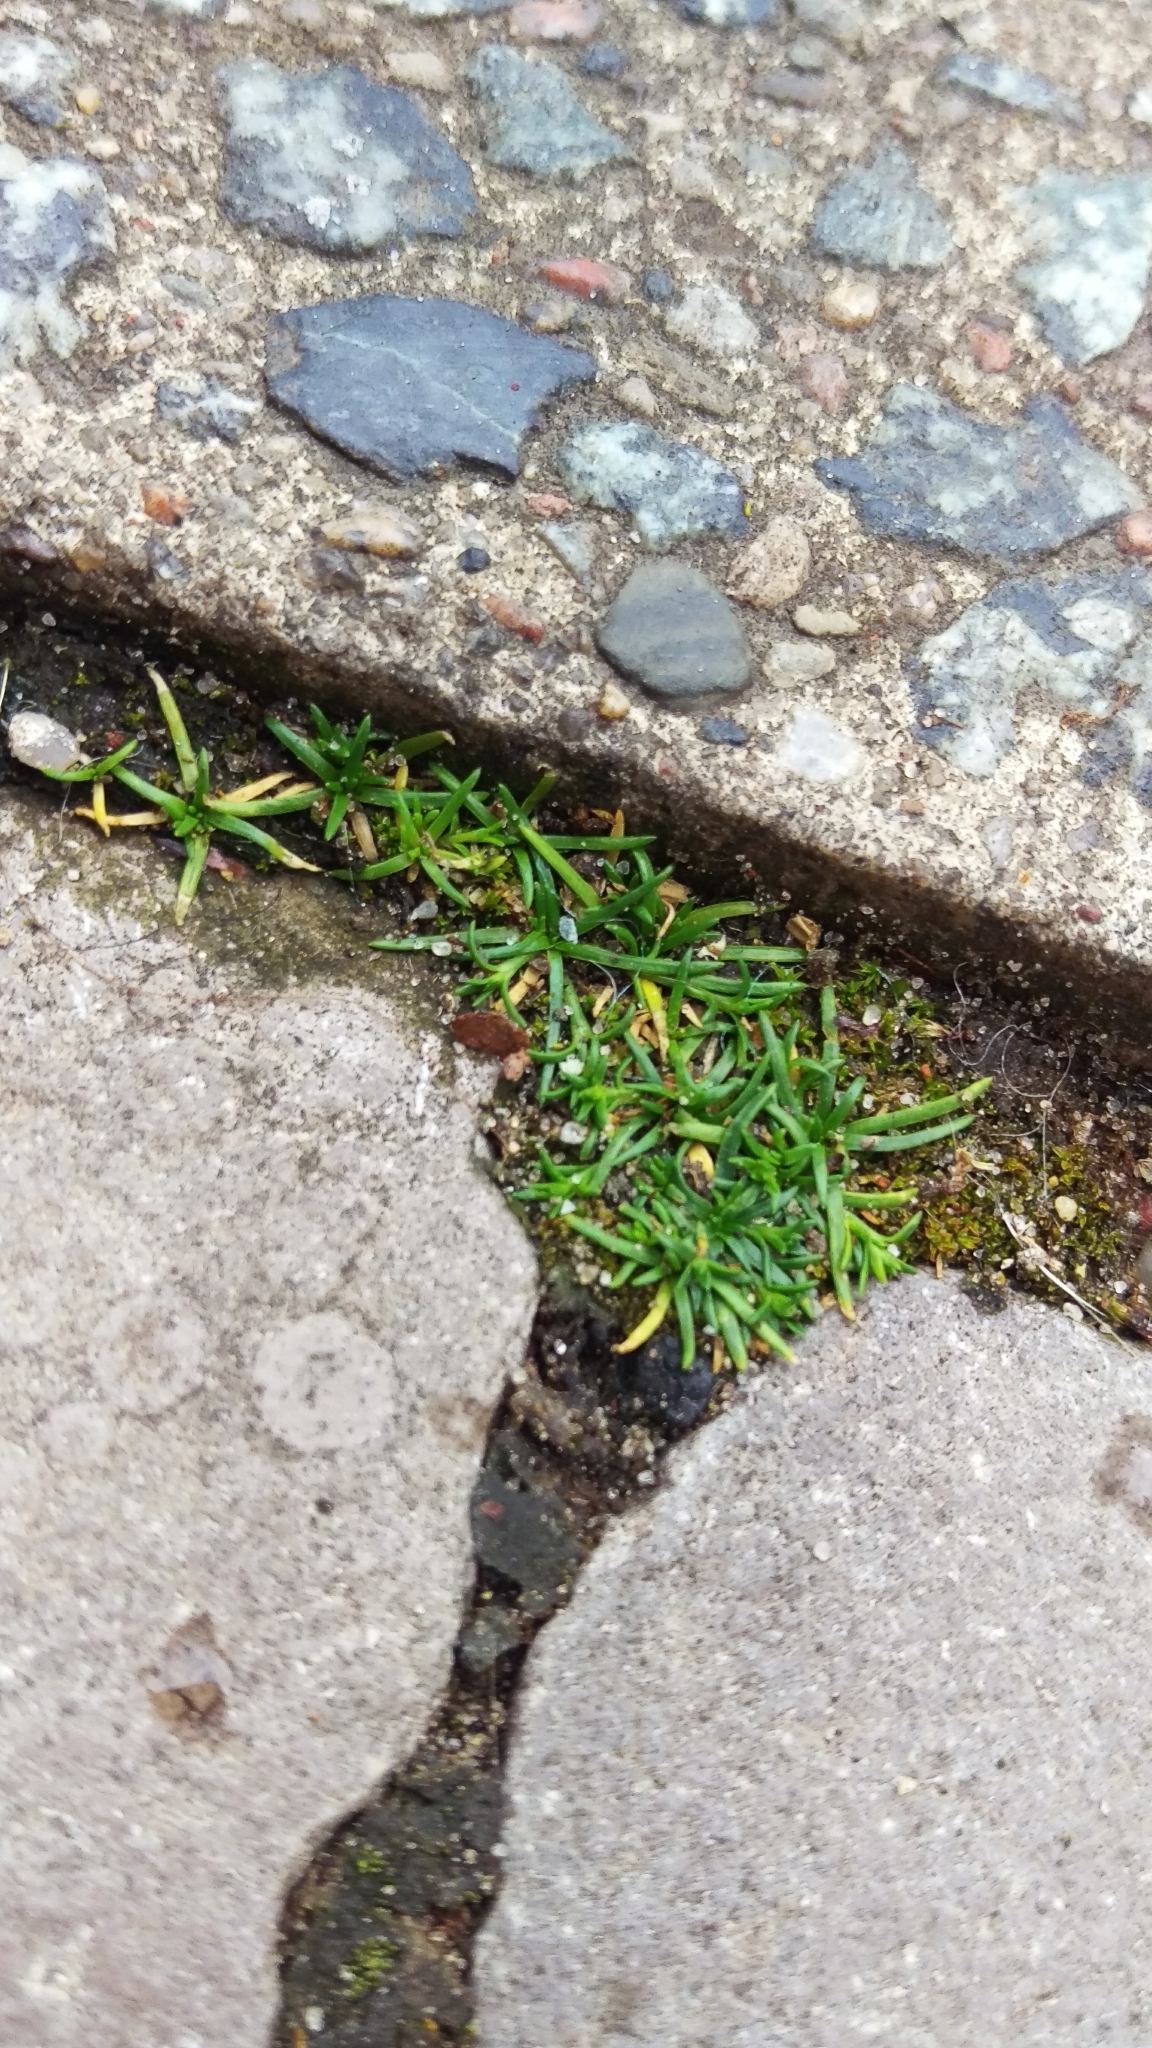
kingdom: Plantae
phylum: Tracheophyta
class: Magnoliopsida
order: Caryophyllales
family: Caryophyllaceae
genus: Sagina
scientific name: Sagina procumbens
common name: Procumbent pearlwort
